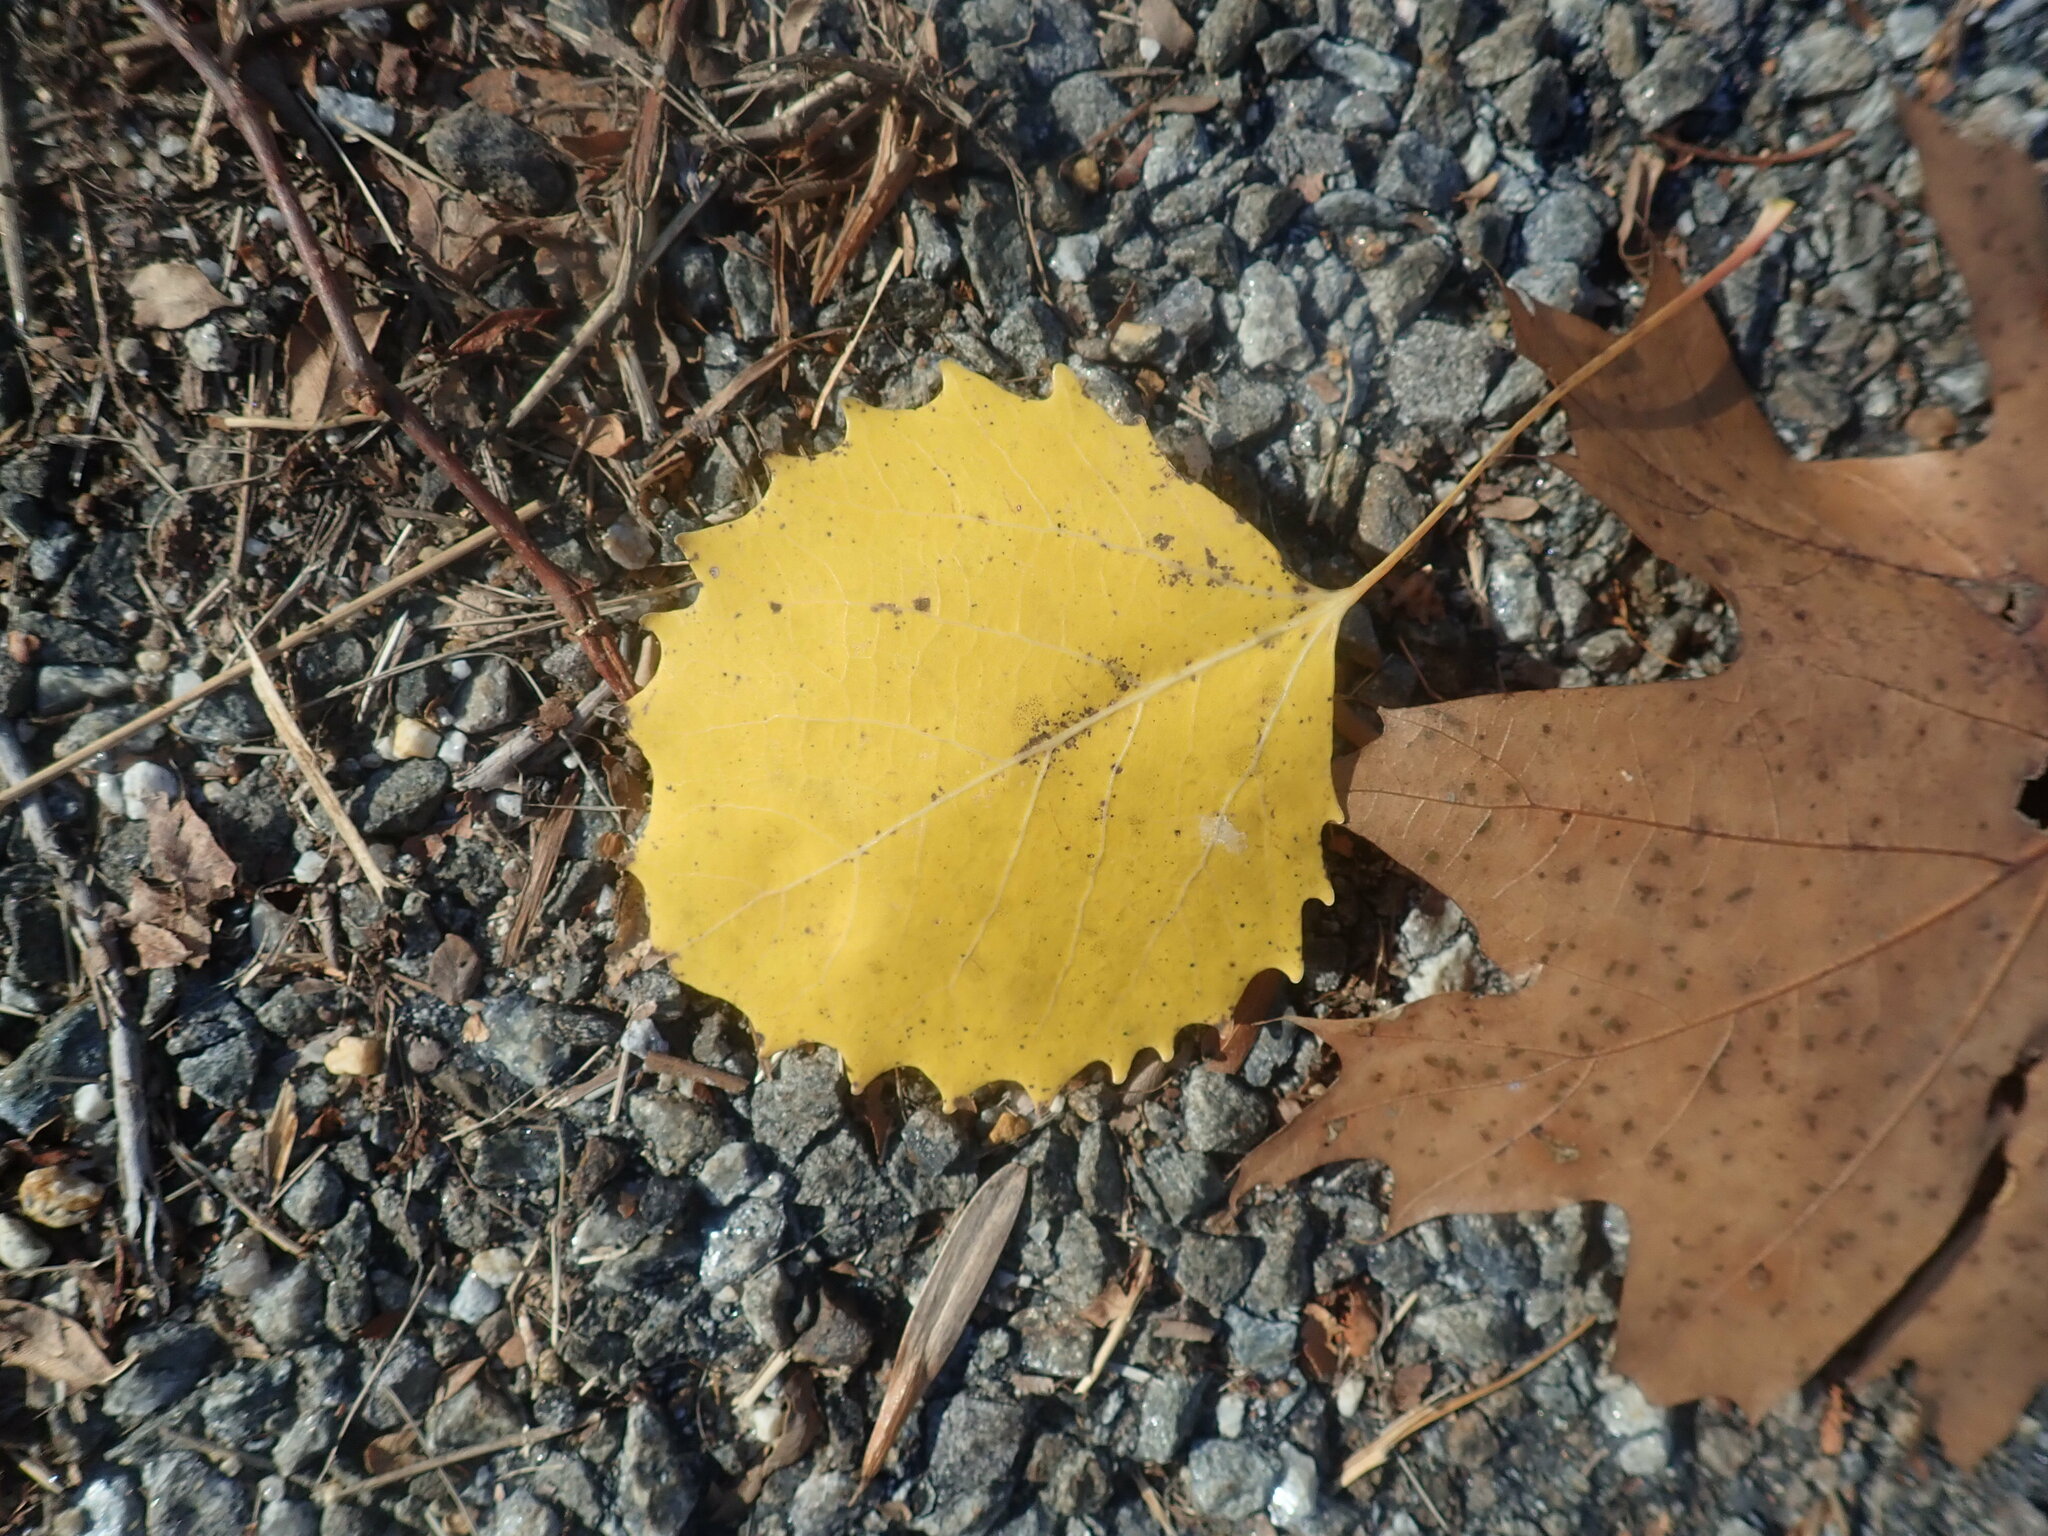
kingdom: Plantae
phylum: Tracheophyta
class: Magnoliopsida
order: Malpighiales
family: Salicaceae
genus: Populus
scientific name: Populus grandidentata
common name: Bigtooth aspen
